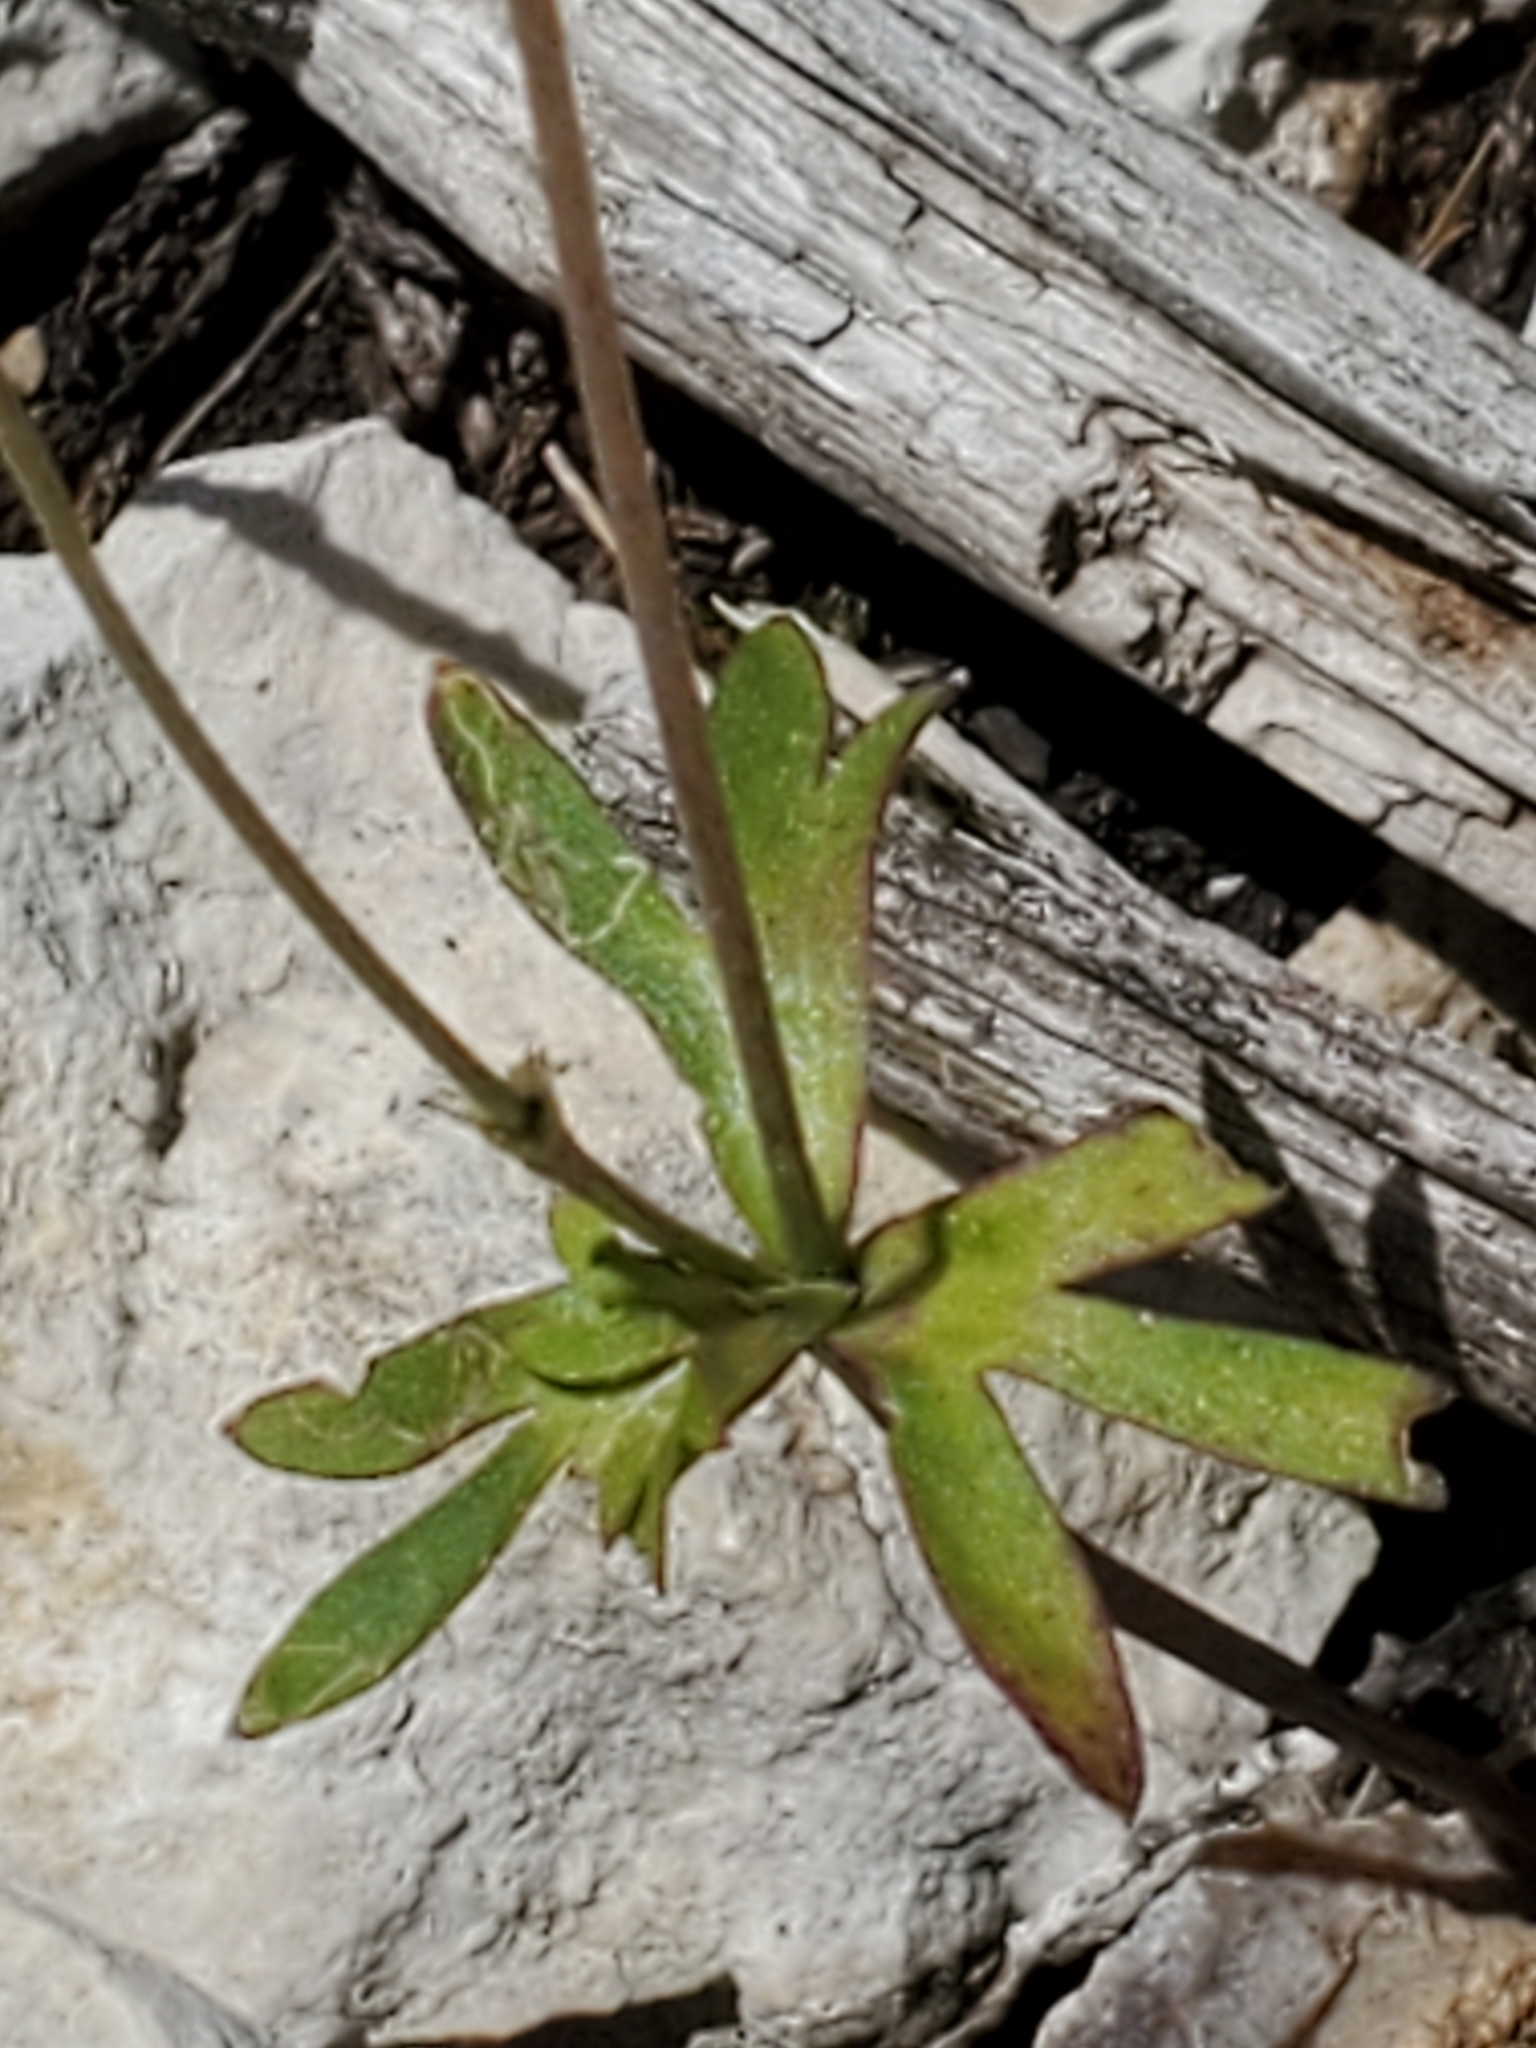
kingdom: Plantae
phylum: Tracheophyta
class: Magnoliopsida
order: Ranunculales
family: Ranunculaceae
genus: Anemone
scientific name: Anemone edwardsiana
